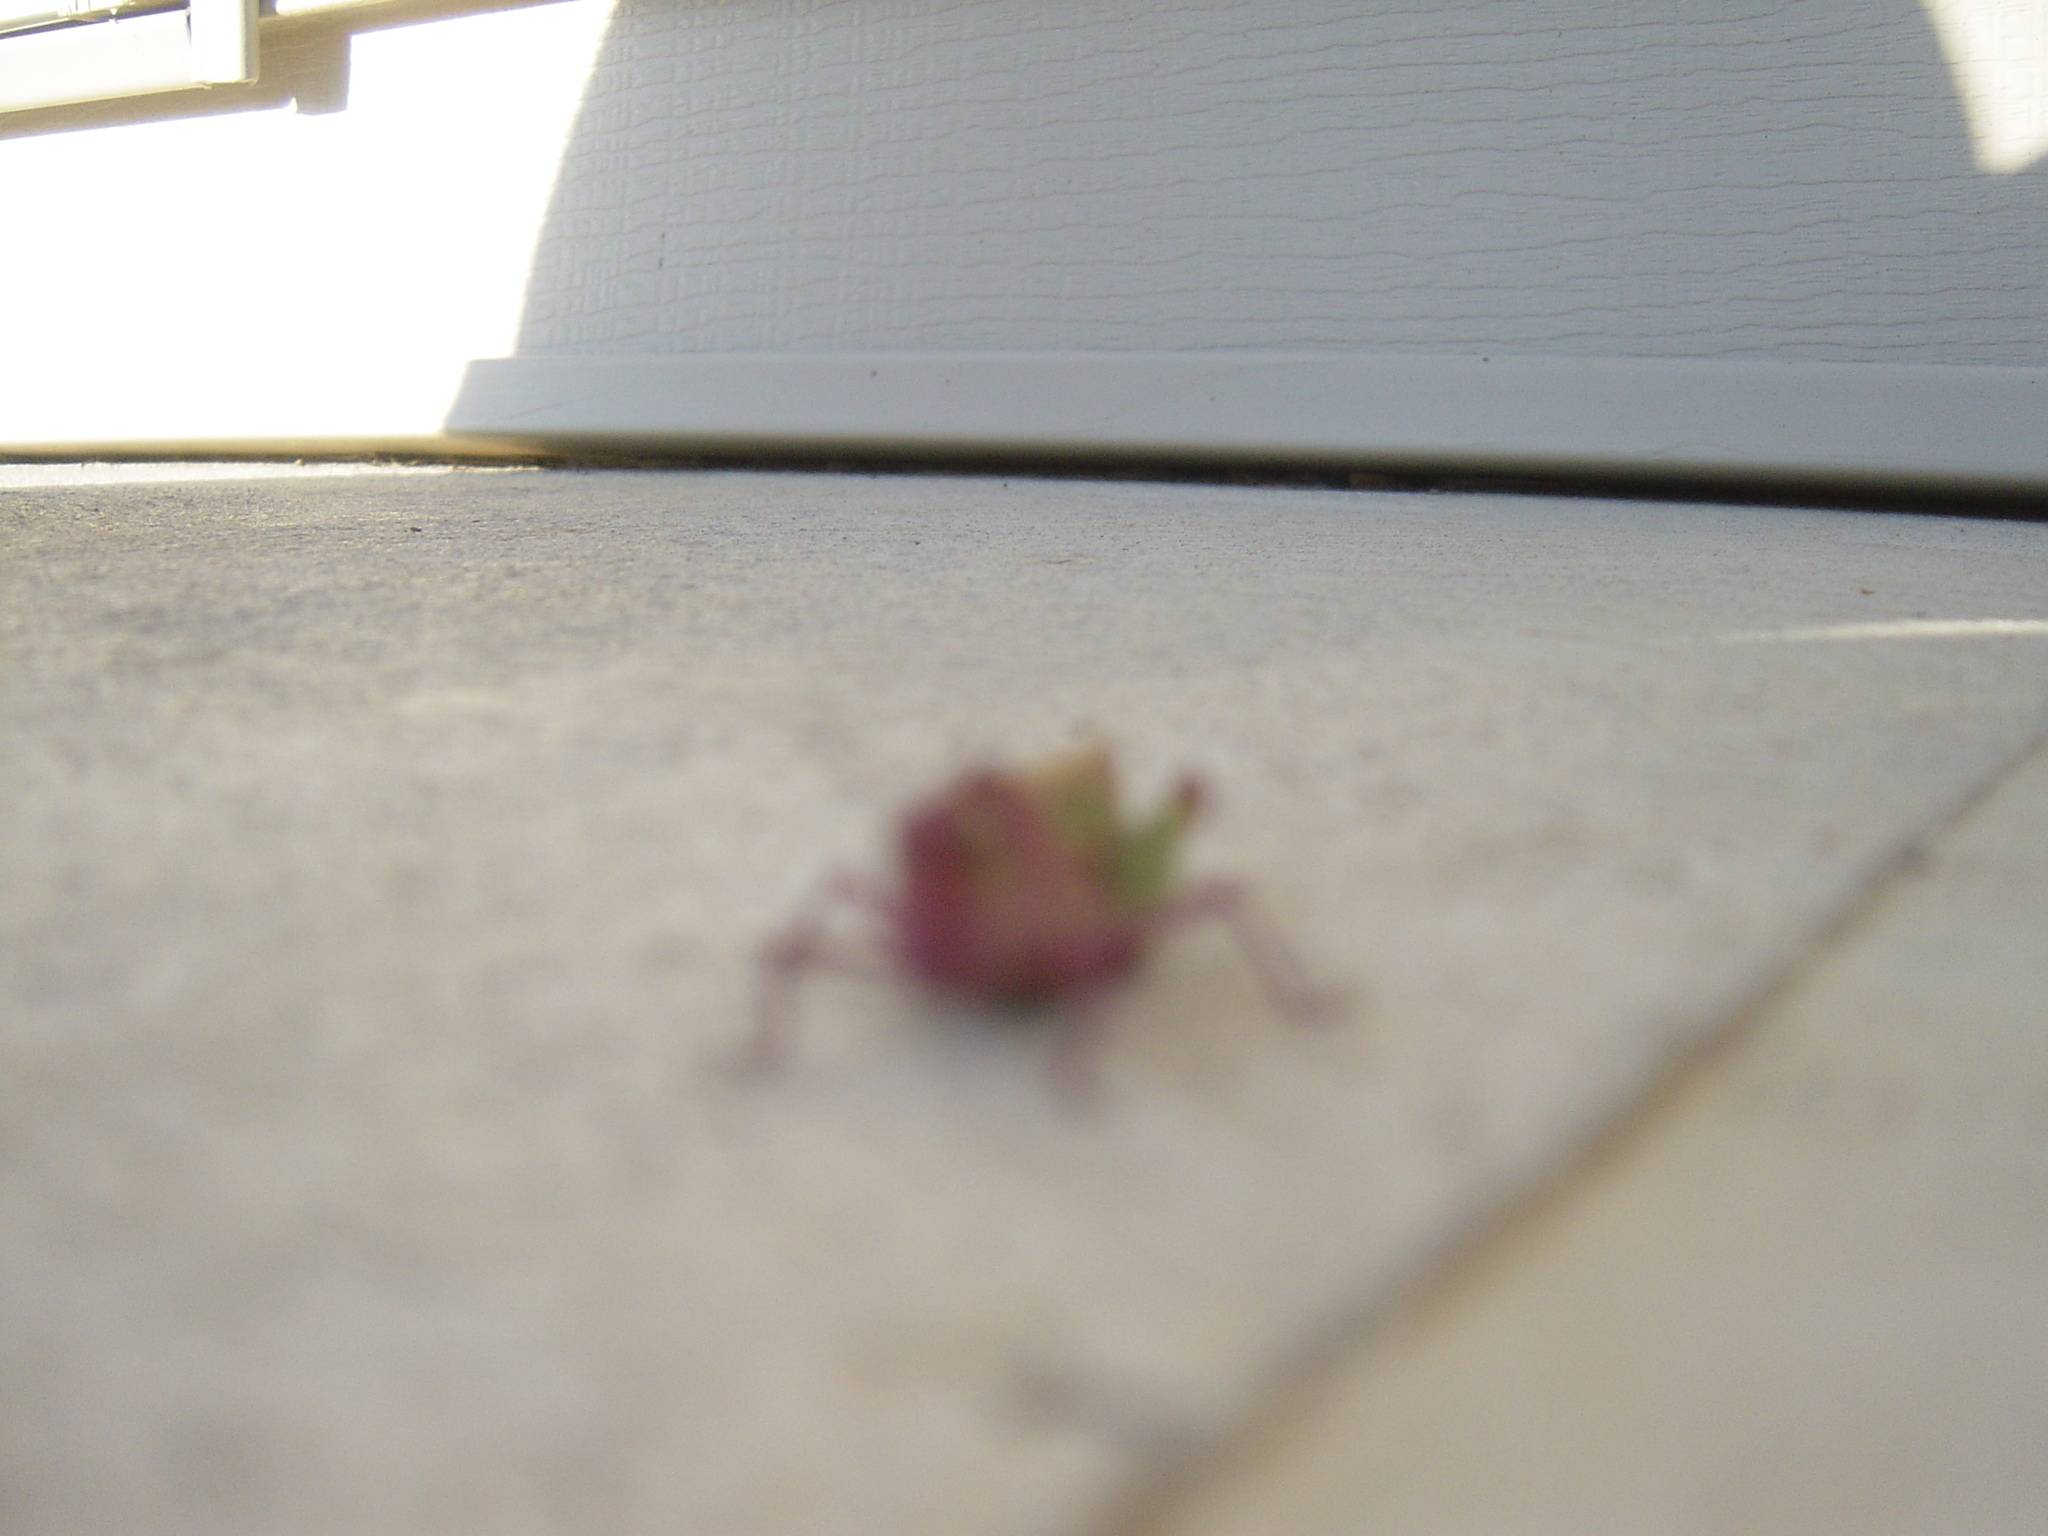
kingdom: Animalia
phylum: Arthropoda
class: Insecta
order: Orthoptera
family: Acrididae
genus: Chortophaga
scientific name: Chortophaga viridifasciata
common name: Green-striped grasshopper
